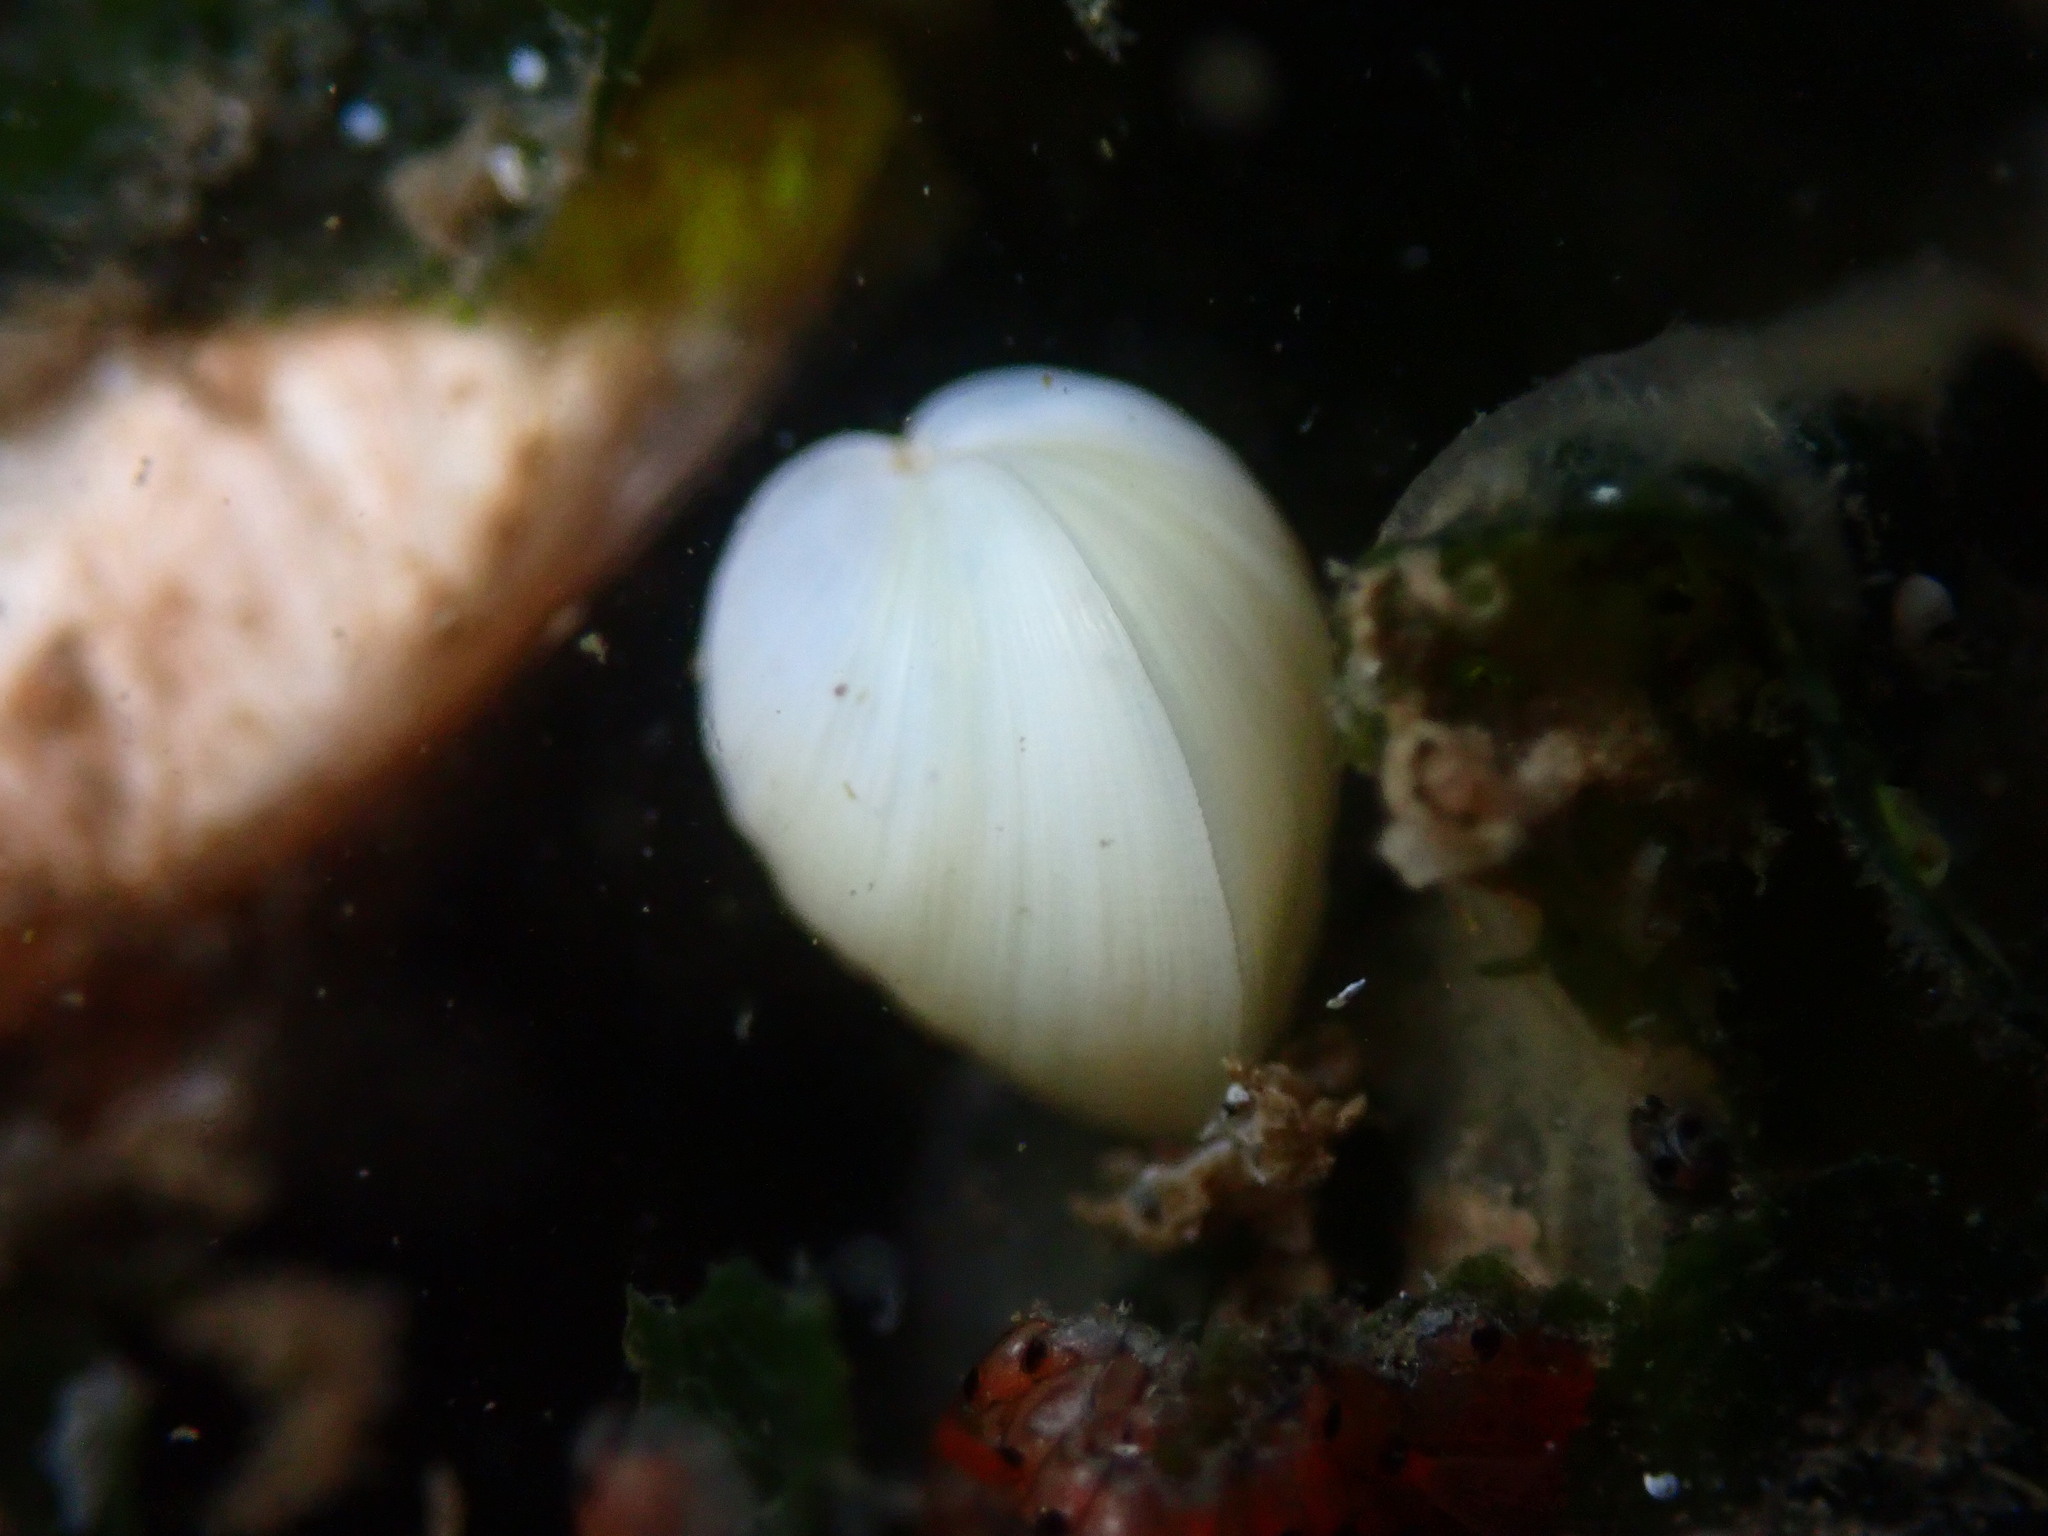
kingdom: Animalia
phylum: Mollusca
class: Bivalvia
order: Venerida
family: Ungulinidae
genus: Zemysina
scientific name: Zemysina orbella
